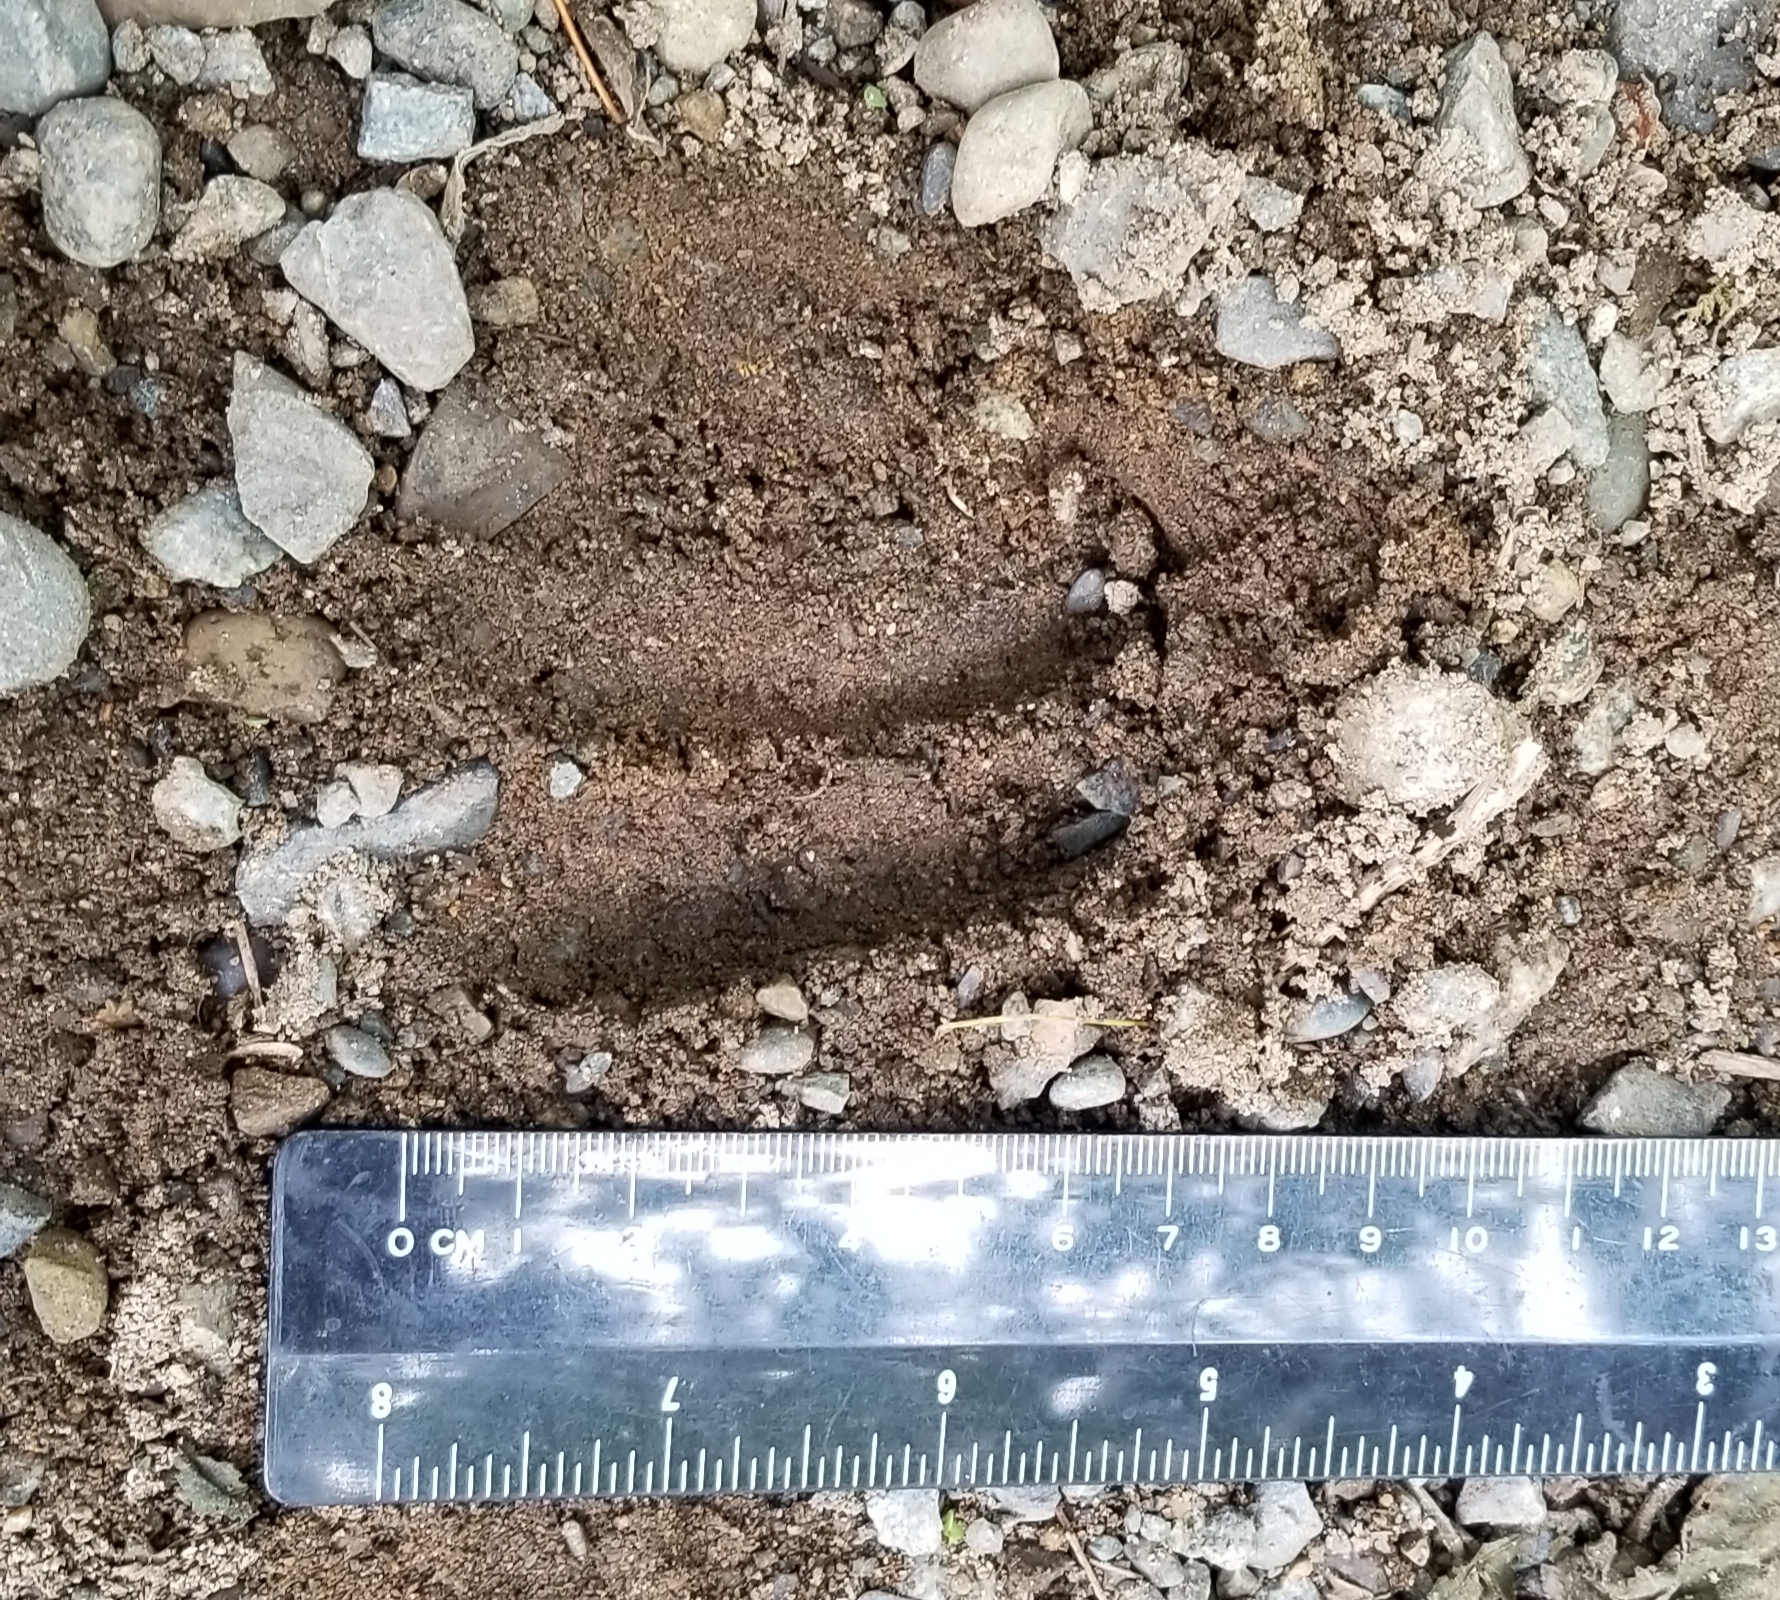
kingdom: Animalia
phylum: Chordata
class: Mammalia
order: Artiodactyla
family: Cervidae
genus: Odocoileus
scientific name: Odocoileus hemionus
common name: Mule deer
